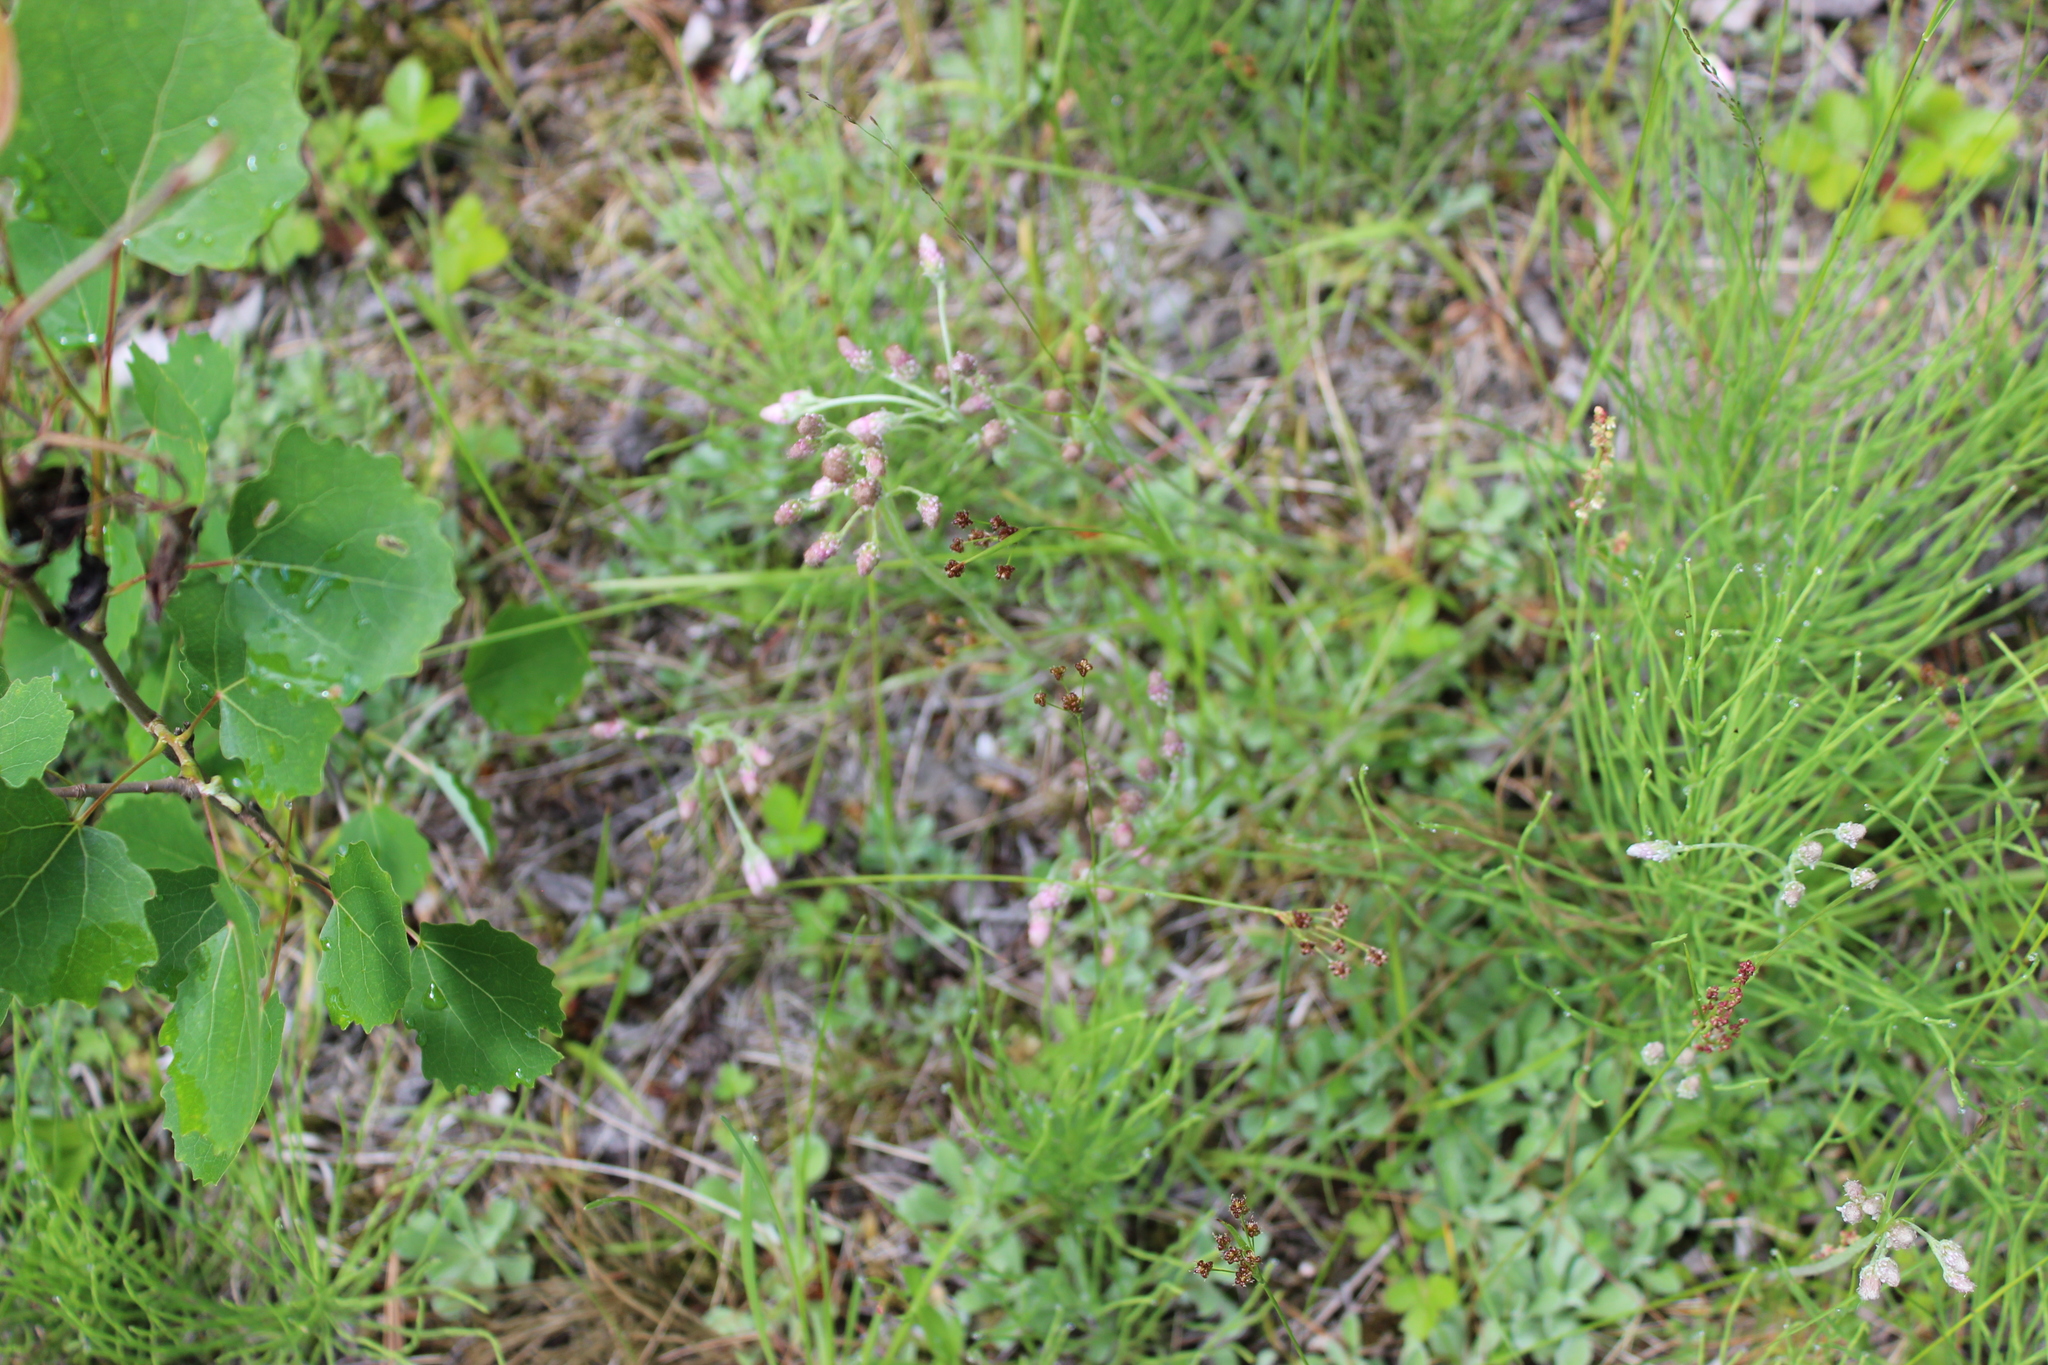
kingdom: Plantae
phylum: Tracheophyta
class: Magnoliopsida
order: Asterales
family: Asteraceae
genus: Antennaria
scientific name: Antennaria dioica
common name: Mountain everlasting
